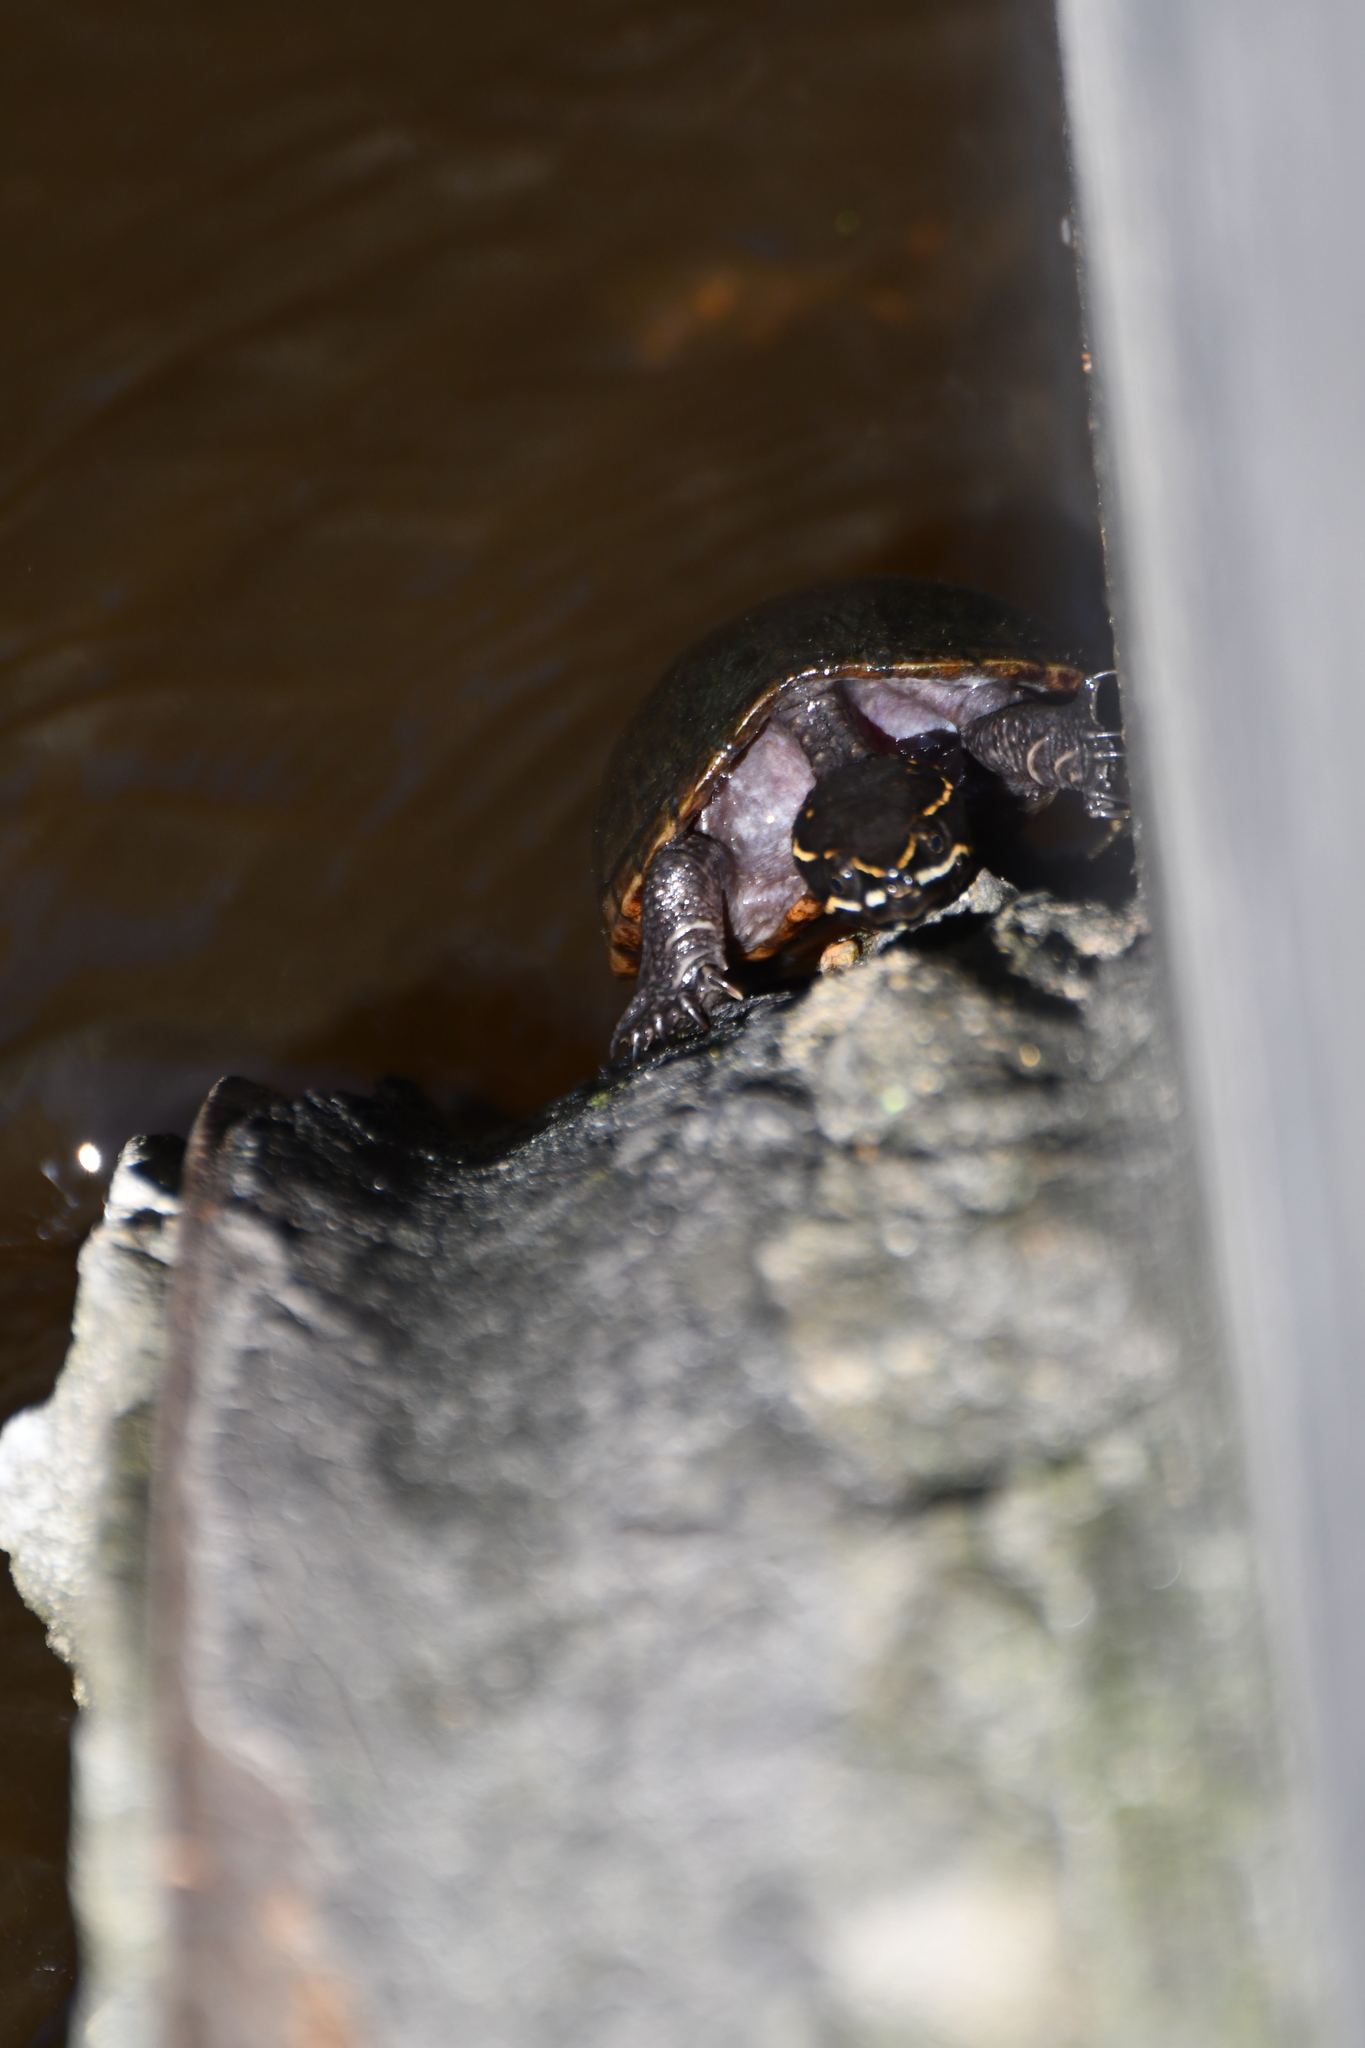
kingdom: Animalia
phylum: Chordata
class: Testudines
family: Kinosternidae
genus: Sternotherus
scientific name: Sternotherus odoratus
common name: Common musk turtle
